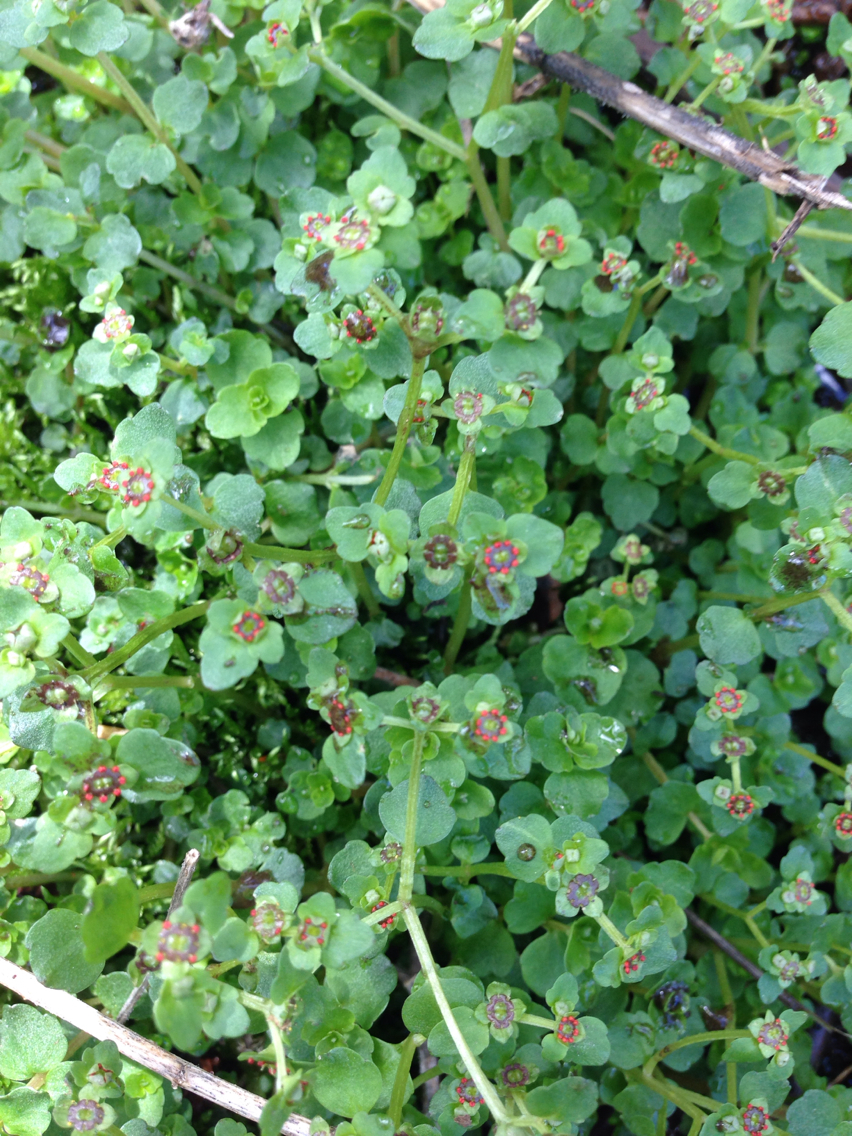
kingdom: Plantae
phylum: Tracheophyta
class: Magnoliopsida
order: Saxifragales
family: Saxifragaceae
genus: Chrysosplenium
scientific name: Chrysosplenium americanum
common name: American golden-saxifrage
